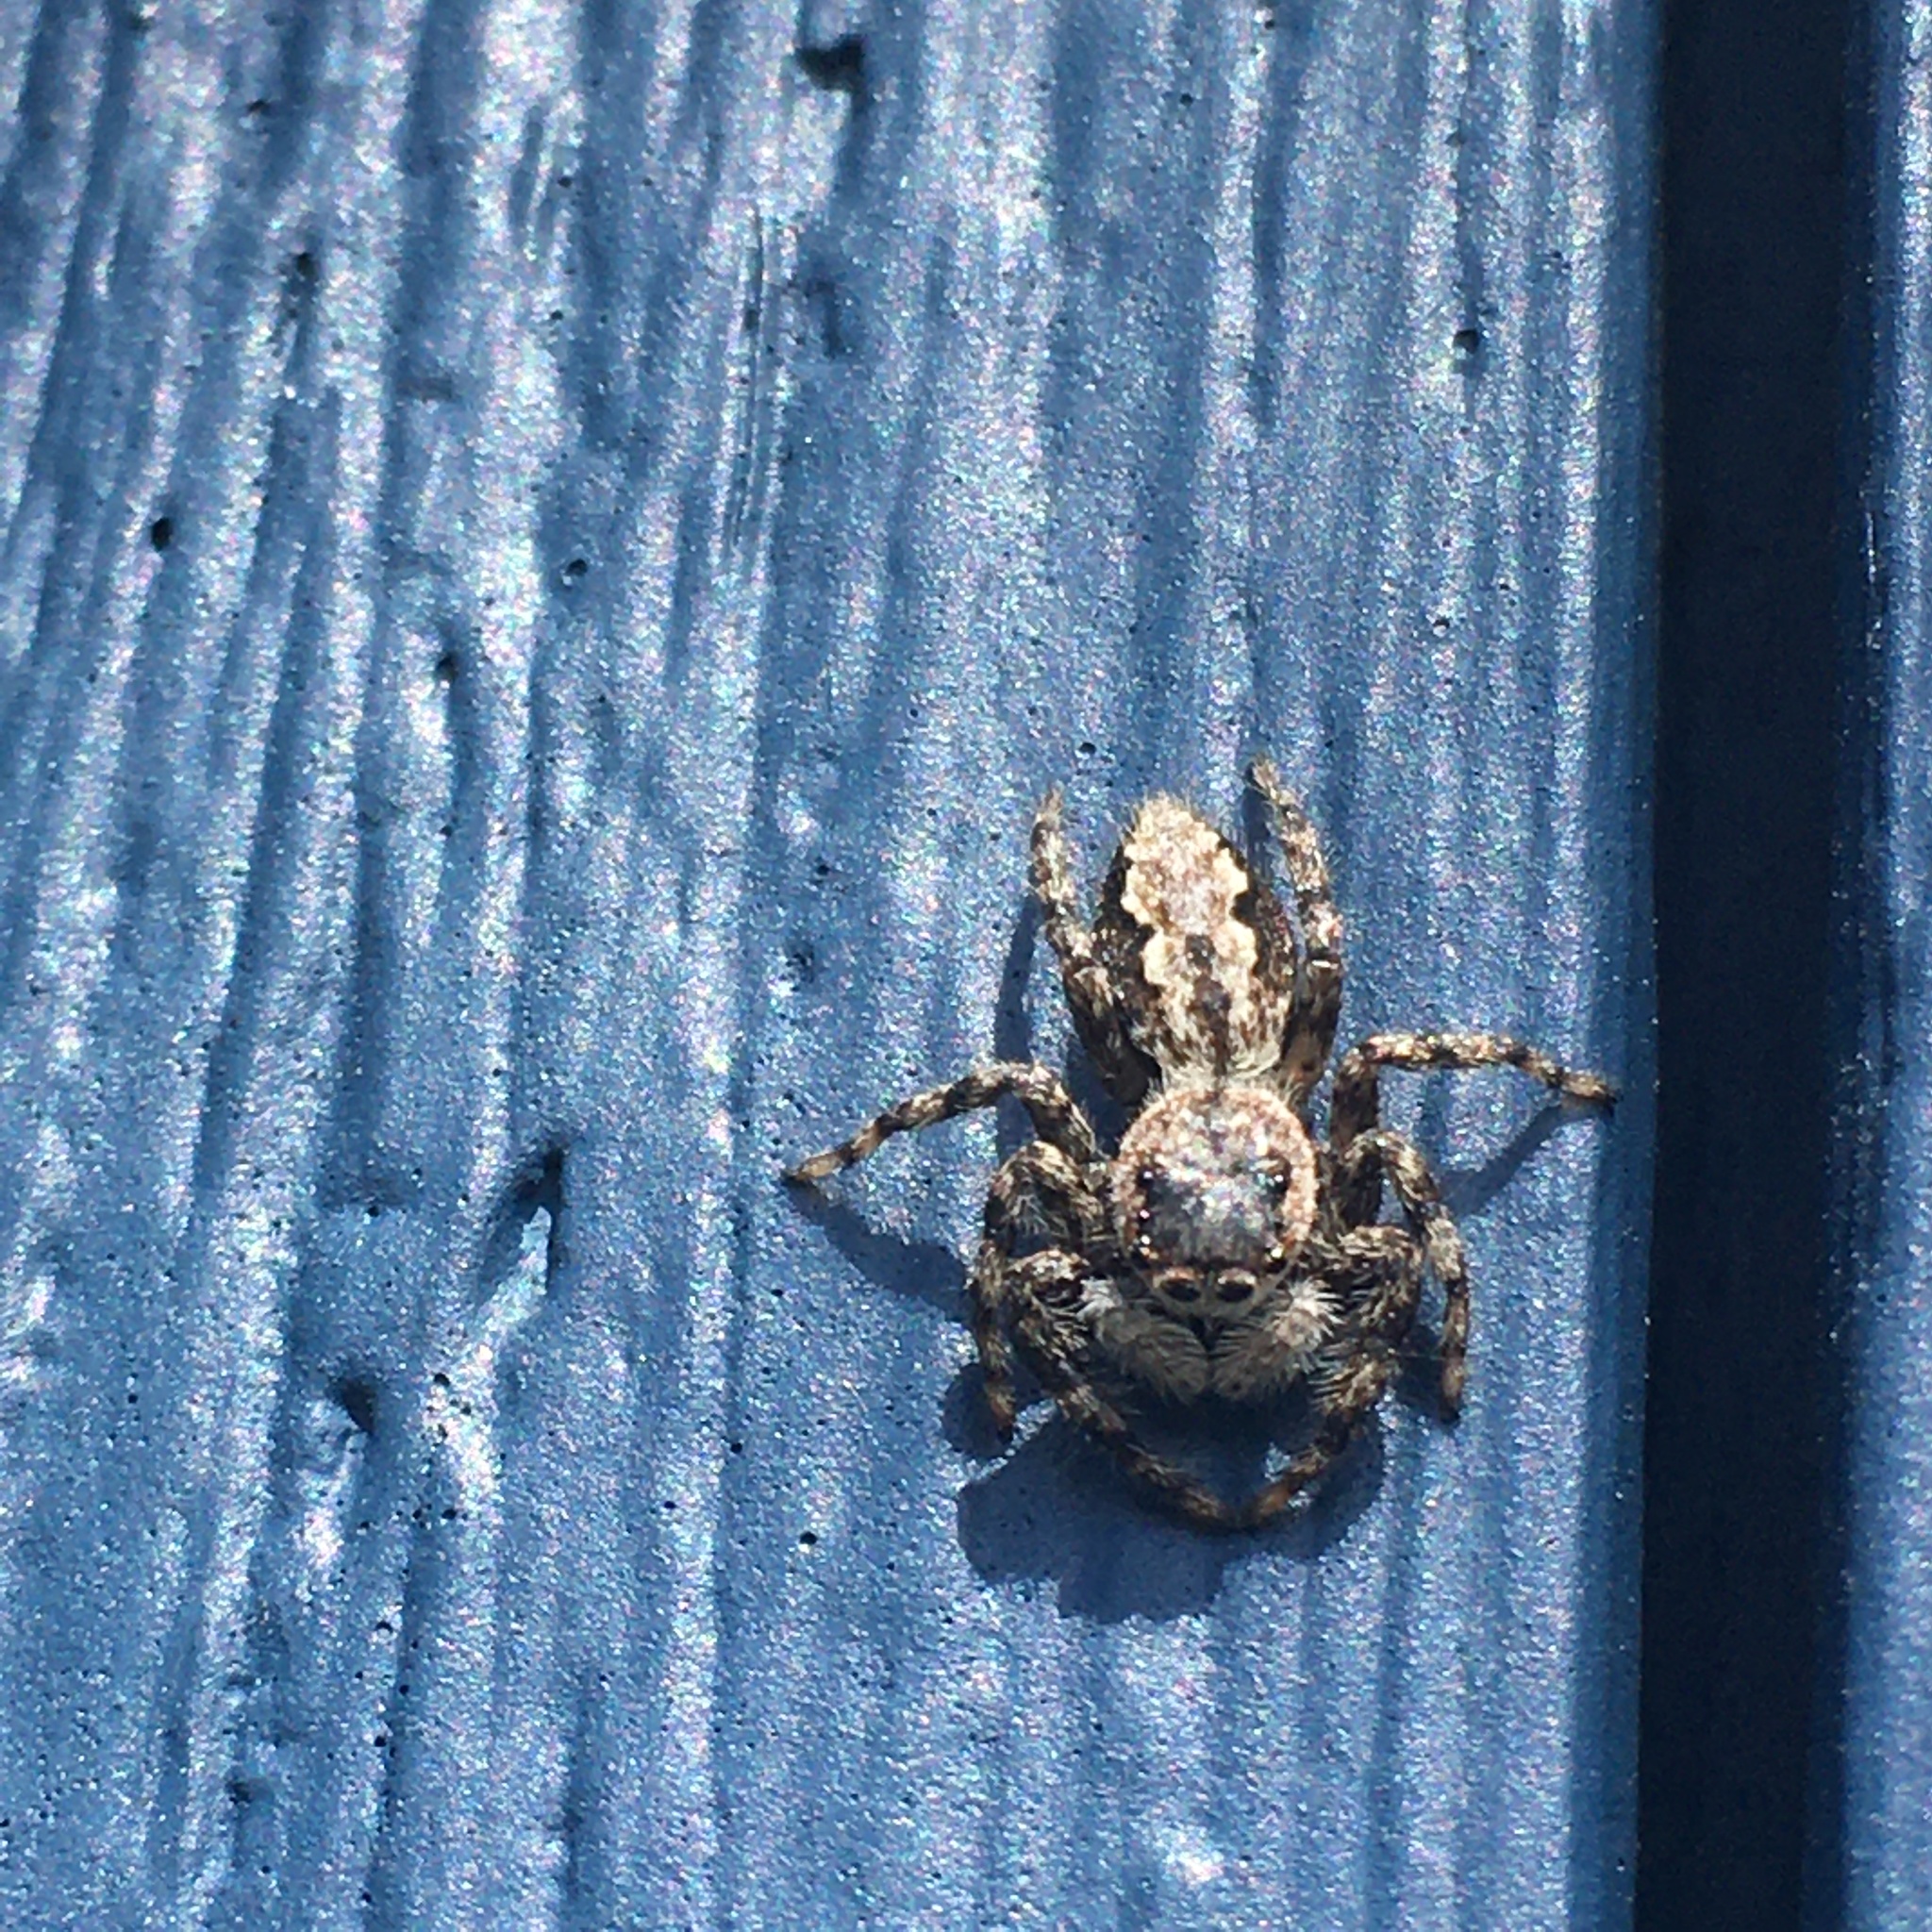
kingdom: Animalia
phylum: Arthropoda
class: Arachnida
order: Araneae
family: Salticidae
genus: Platycryptus
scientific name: Platycryptus undatus
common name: Tan jumping spider
